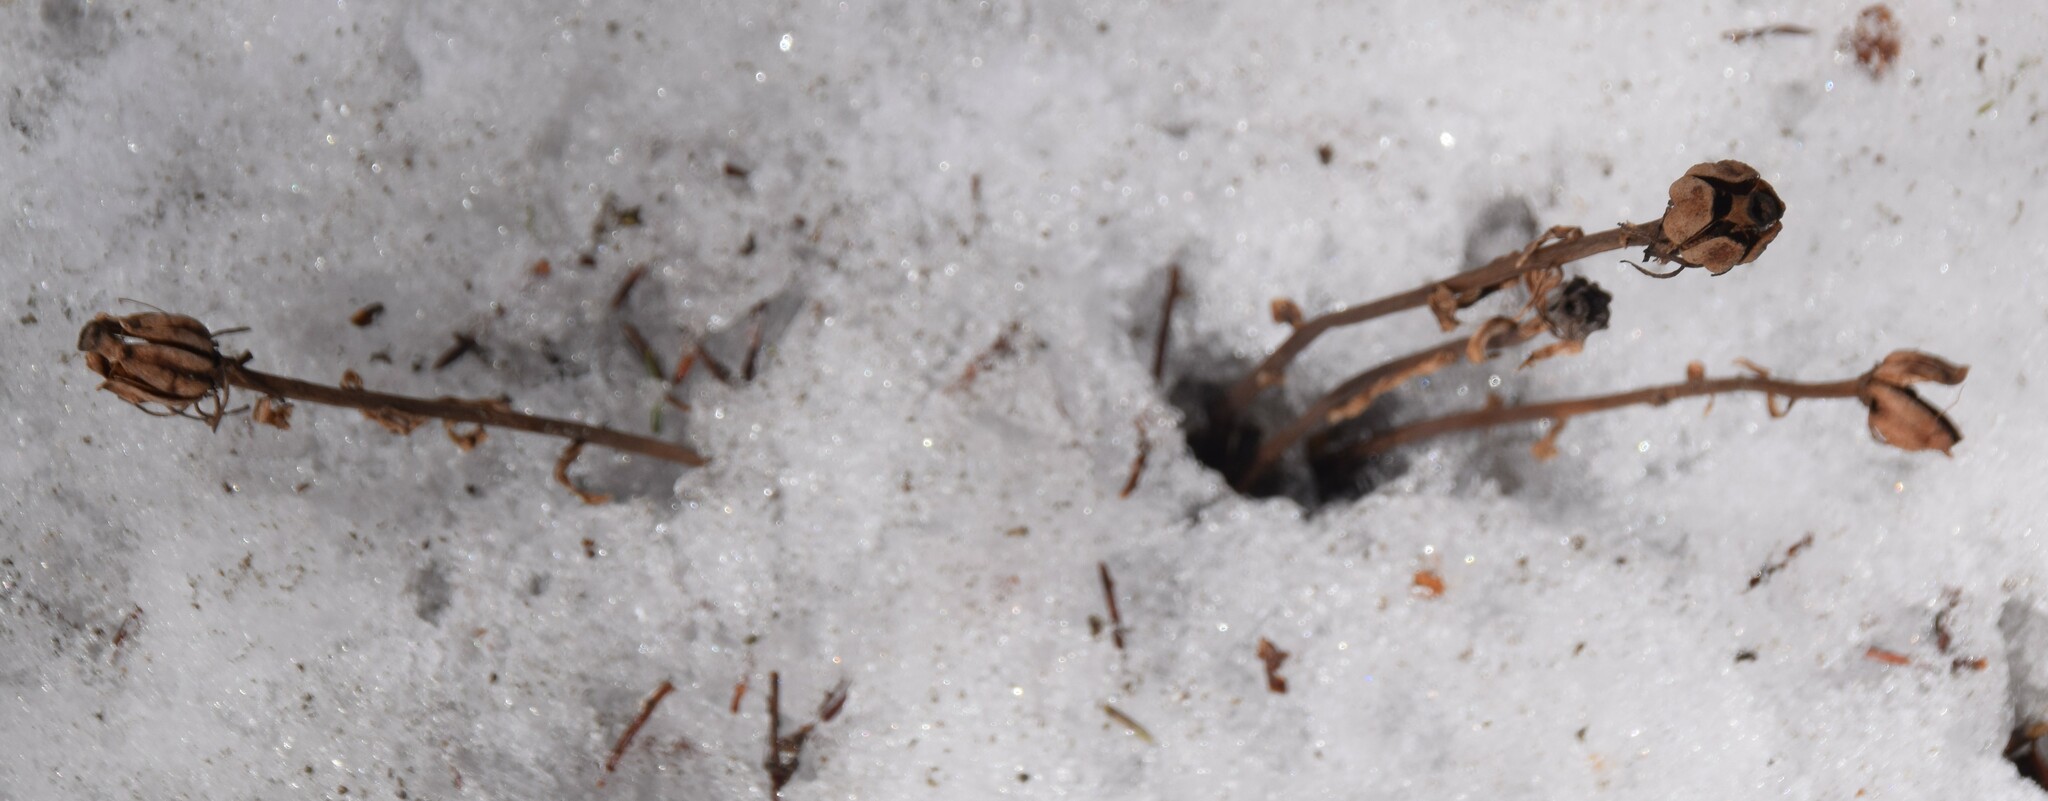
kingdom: Plantae
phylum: Tracheophyta
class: Magnoliopsida
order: Ericales
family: Ericaceae
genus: Monotropa
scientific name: Monotropa uniflora
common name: Convulsion root
